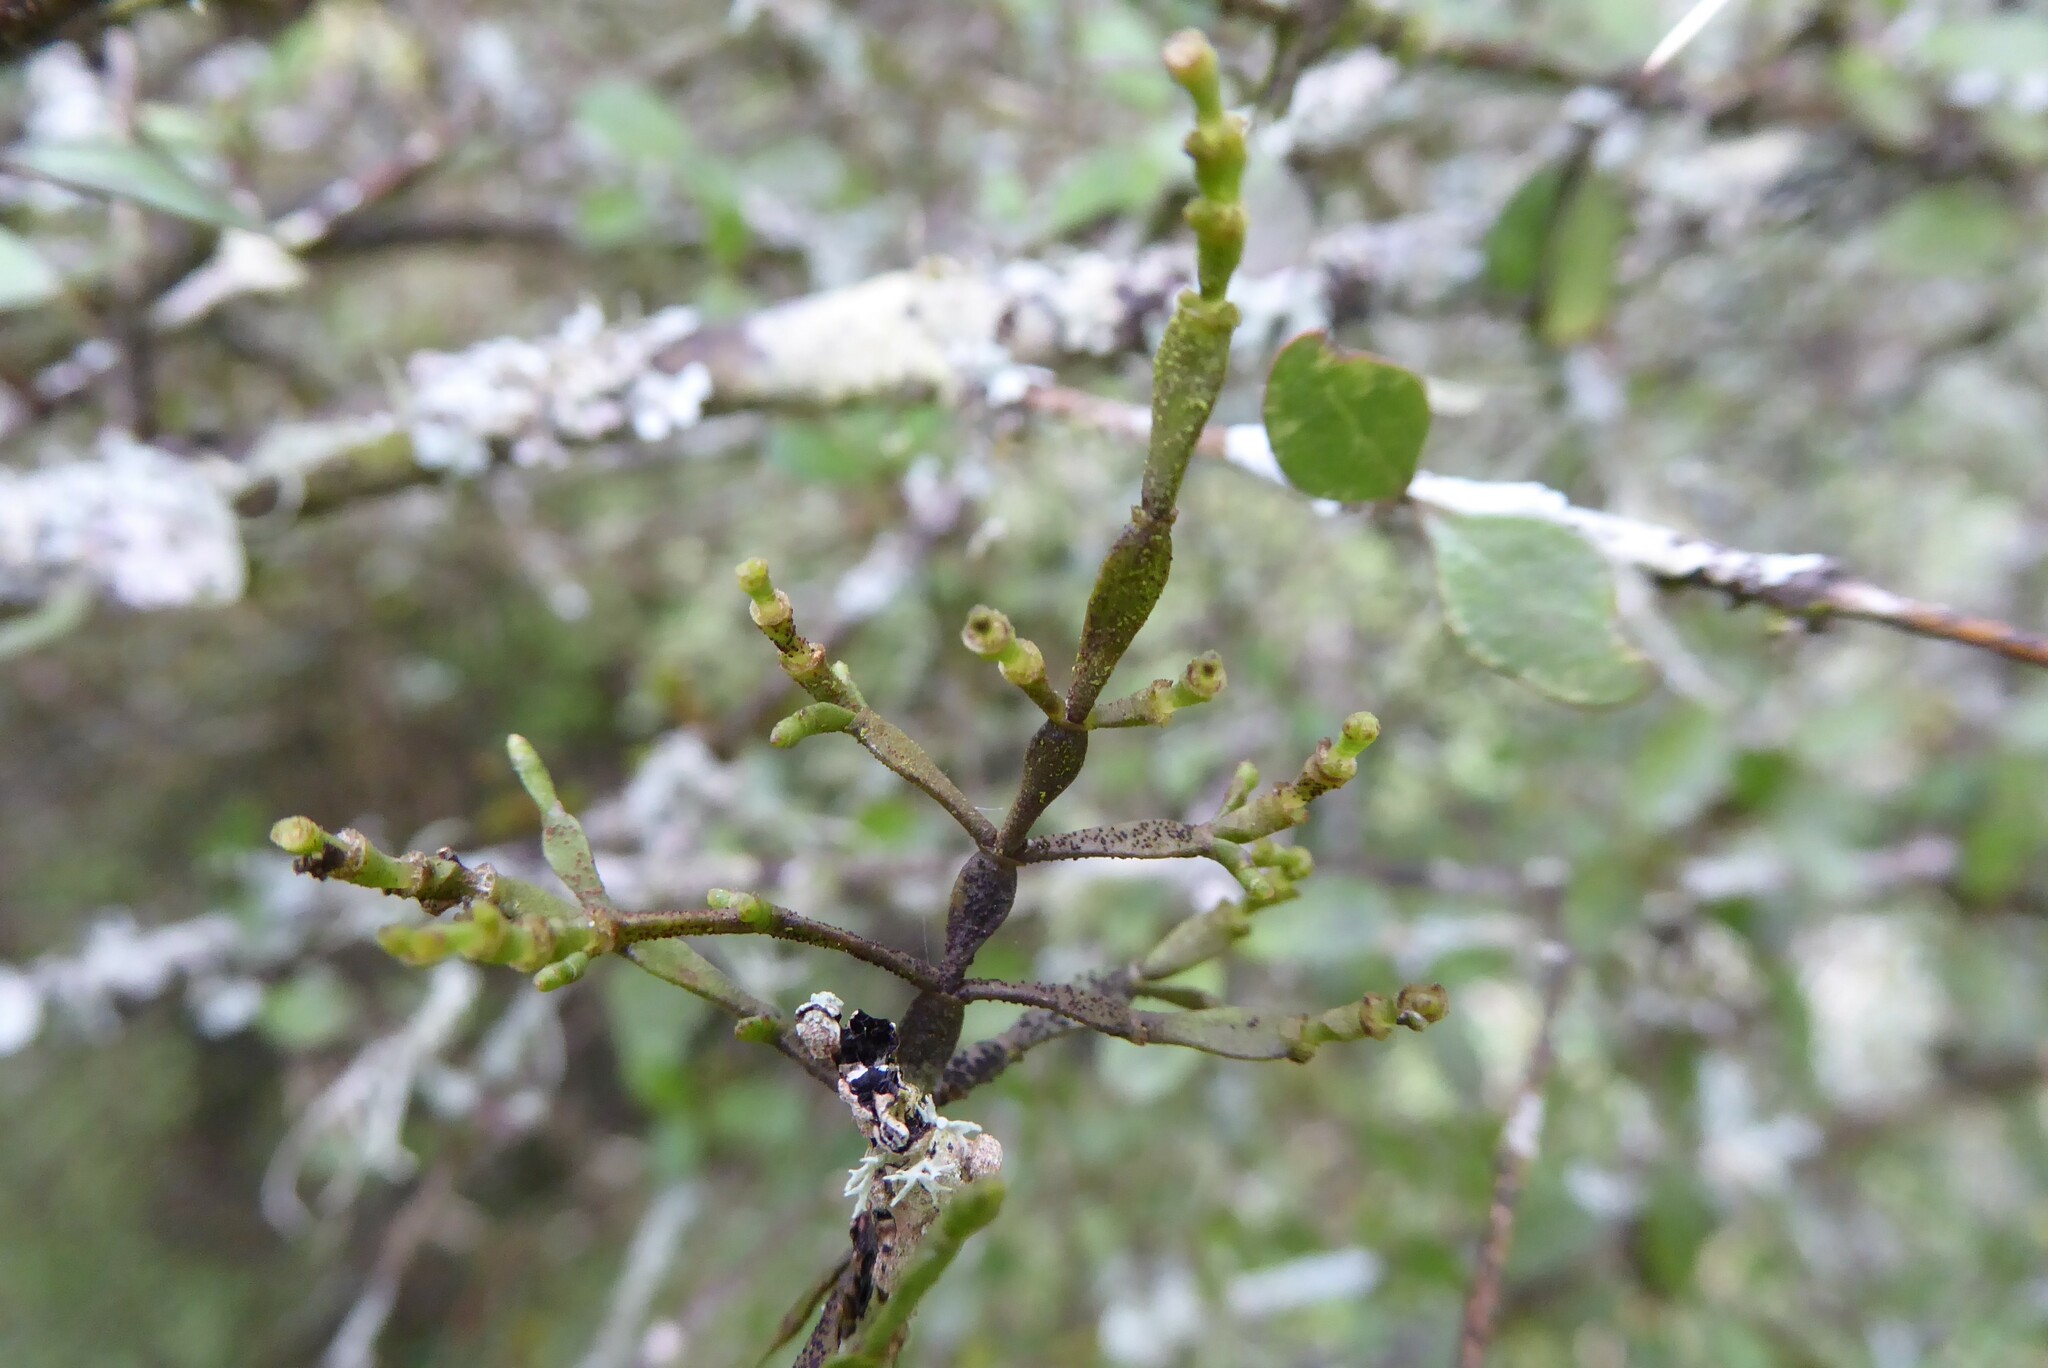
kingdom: Plantae
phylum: Tracheophyta
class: Magnoliopsida
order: Santalales
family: Viscaceae
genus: Korthalsella
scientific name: Korthalsella clavata
